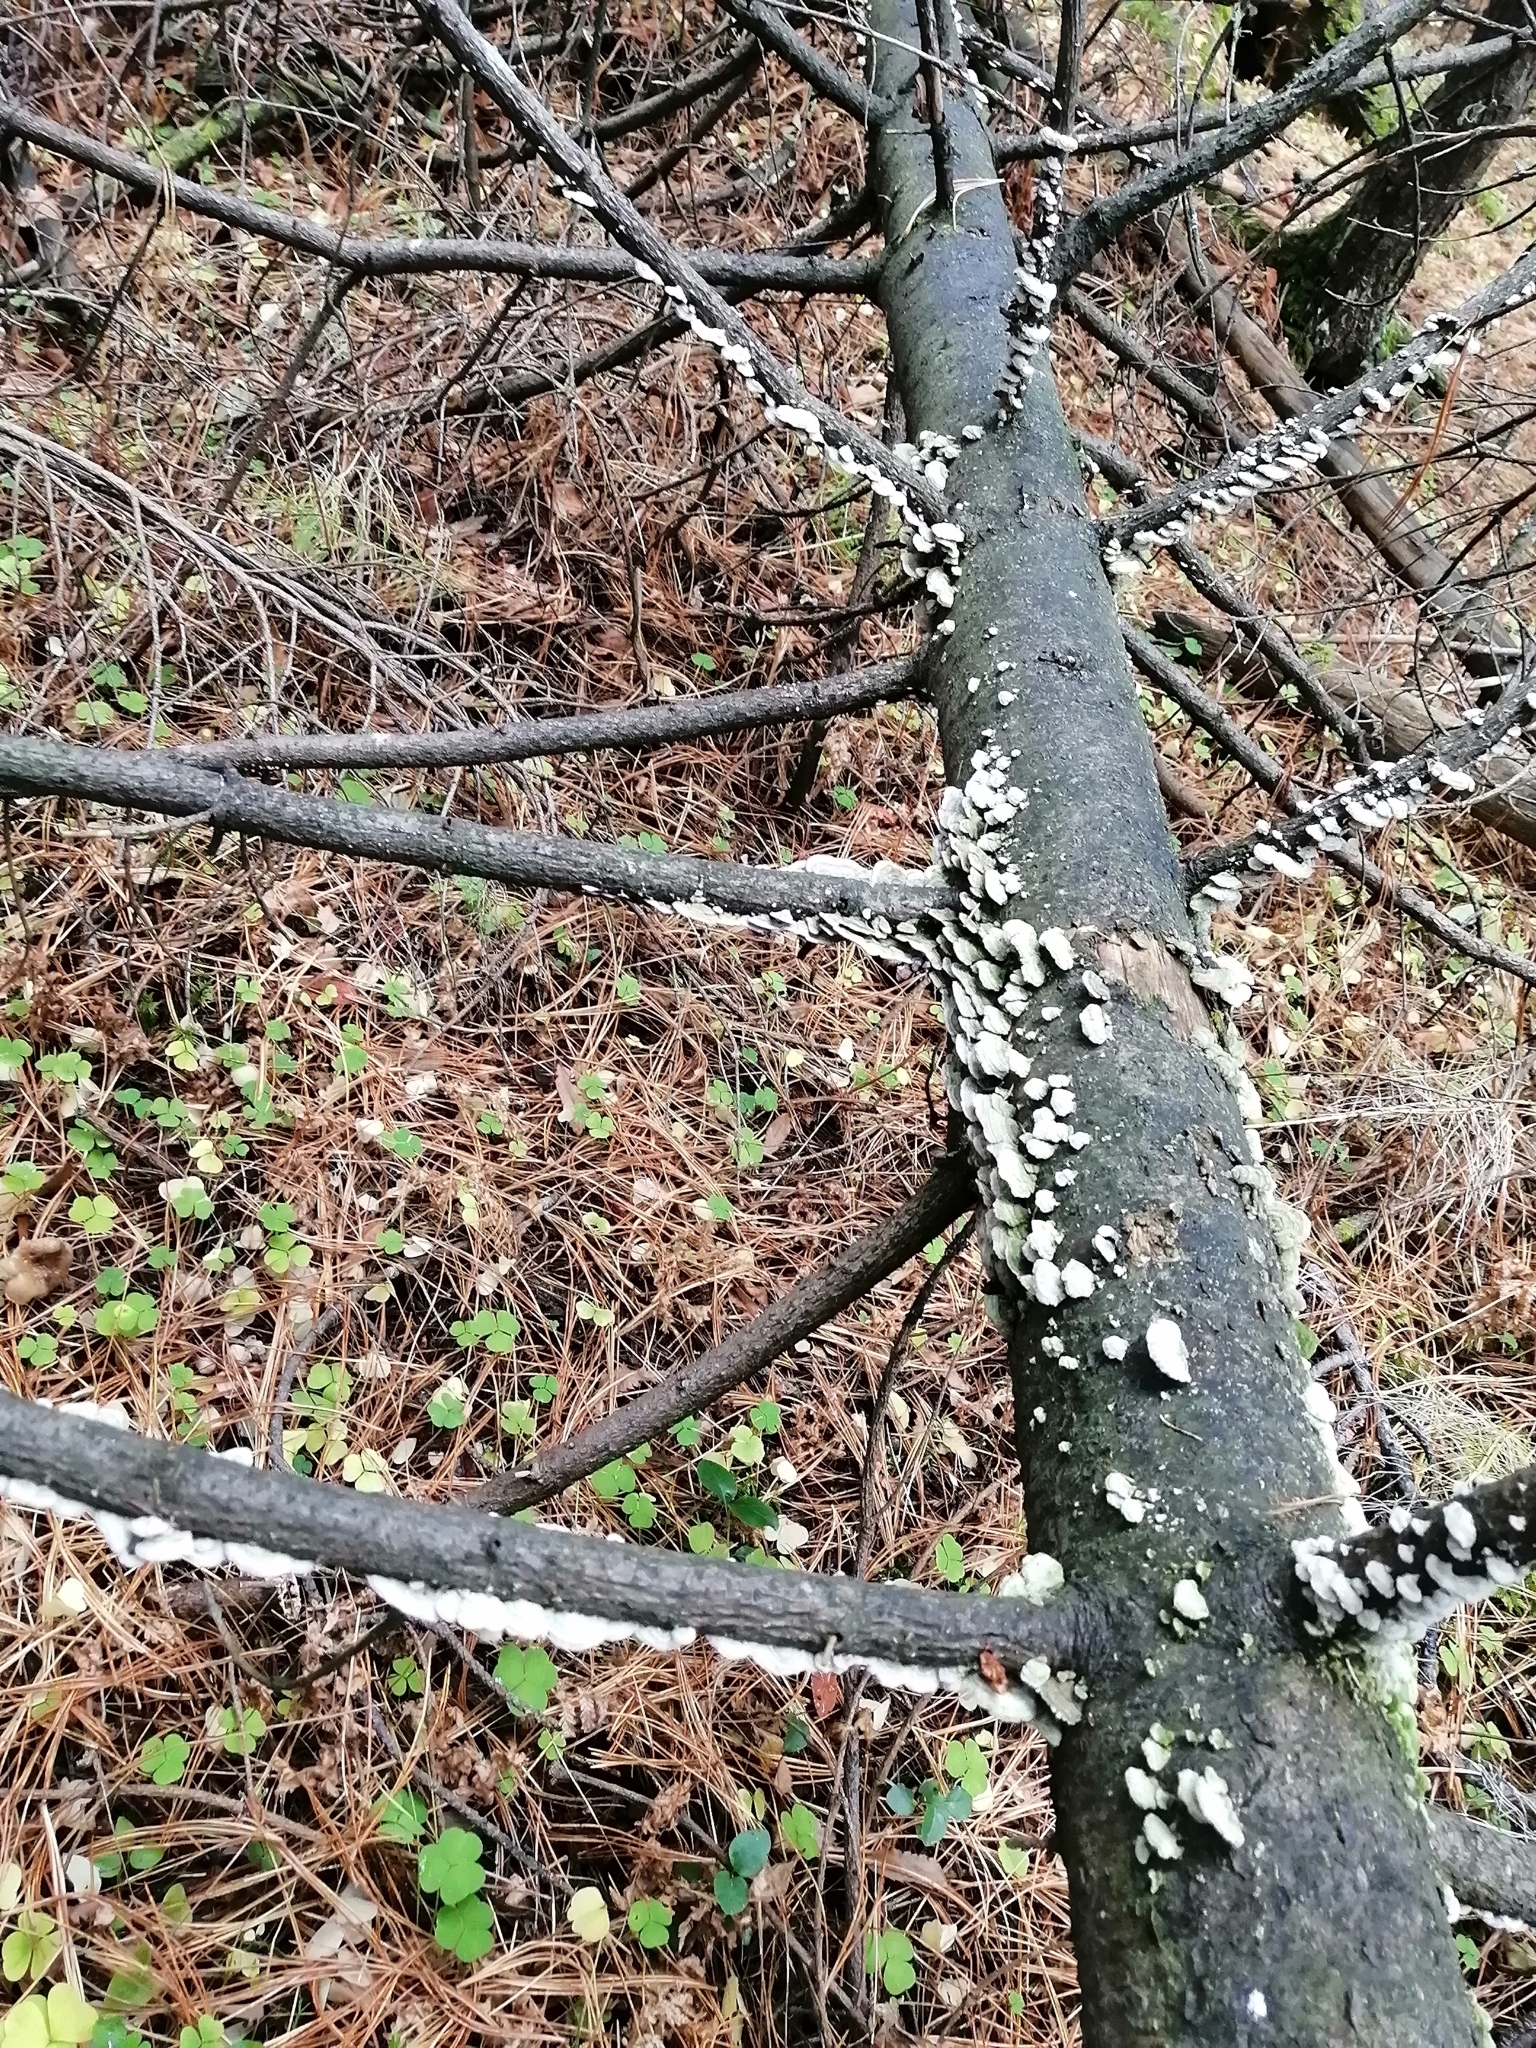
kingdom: Fungi
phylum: Basidiomycota
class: Agaricomycetes
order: Hymenochaetales
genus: Trichaptum
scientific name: Trichaptum fuscoviolaceum
